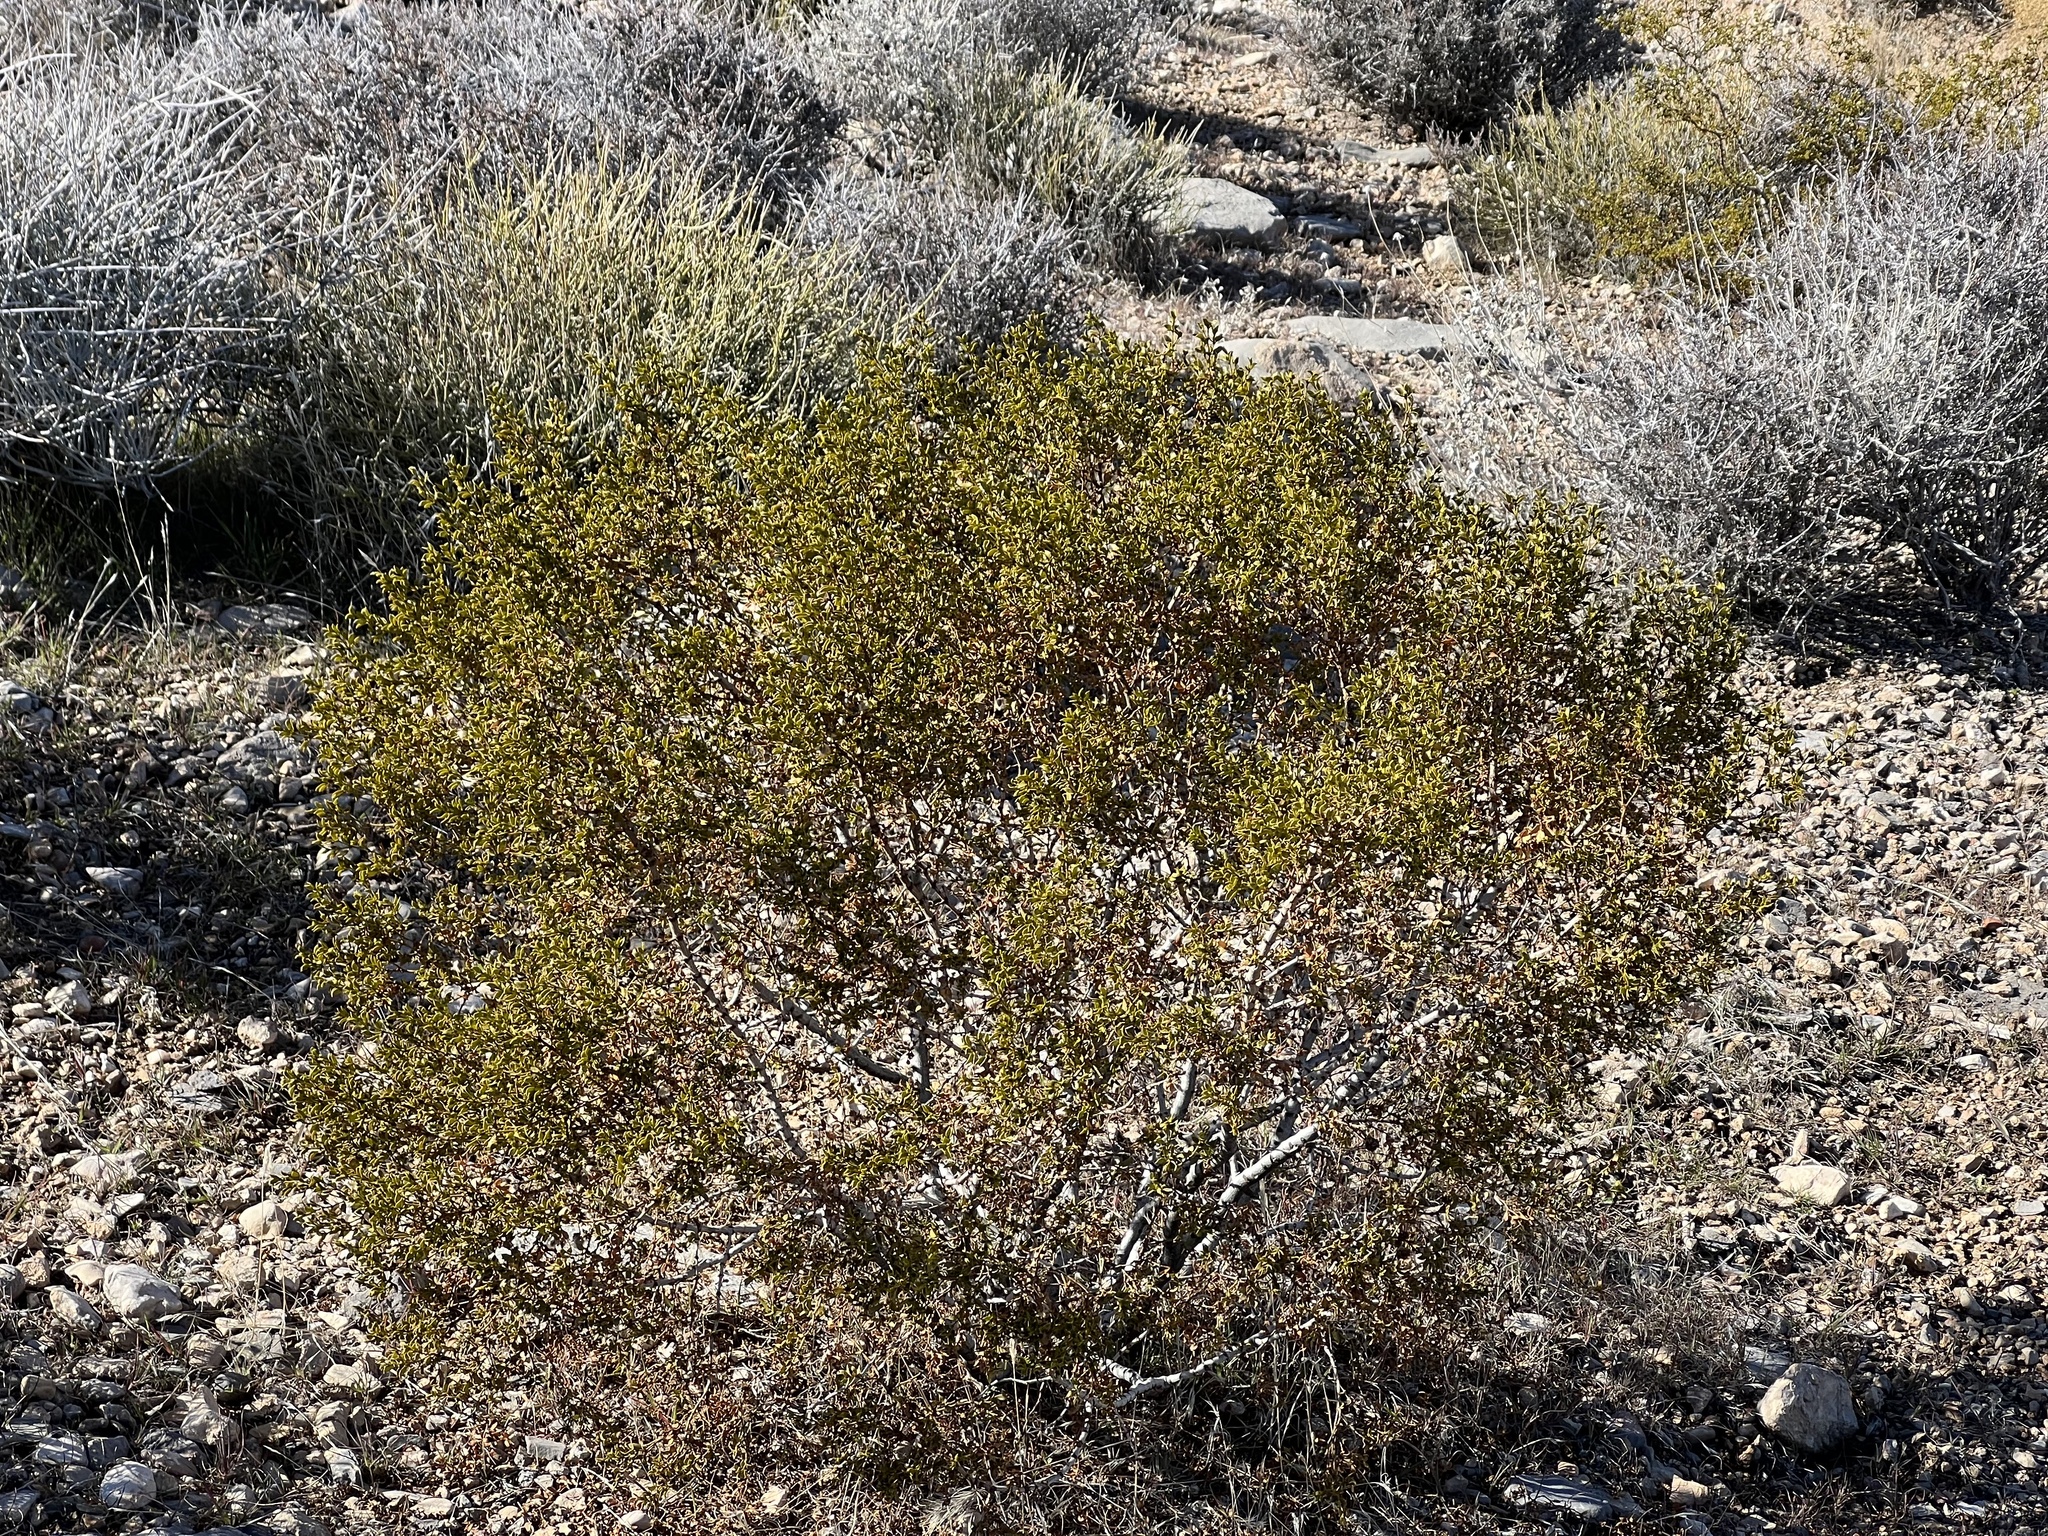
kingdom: Plantae
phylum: Tracheophyta
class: Magnoliopsida
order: Zygophyllales
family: Zygophyllaceae
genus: Larrea
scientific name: Larrea tridentata
